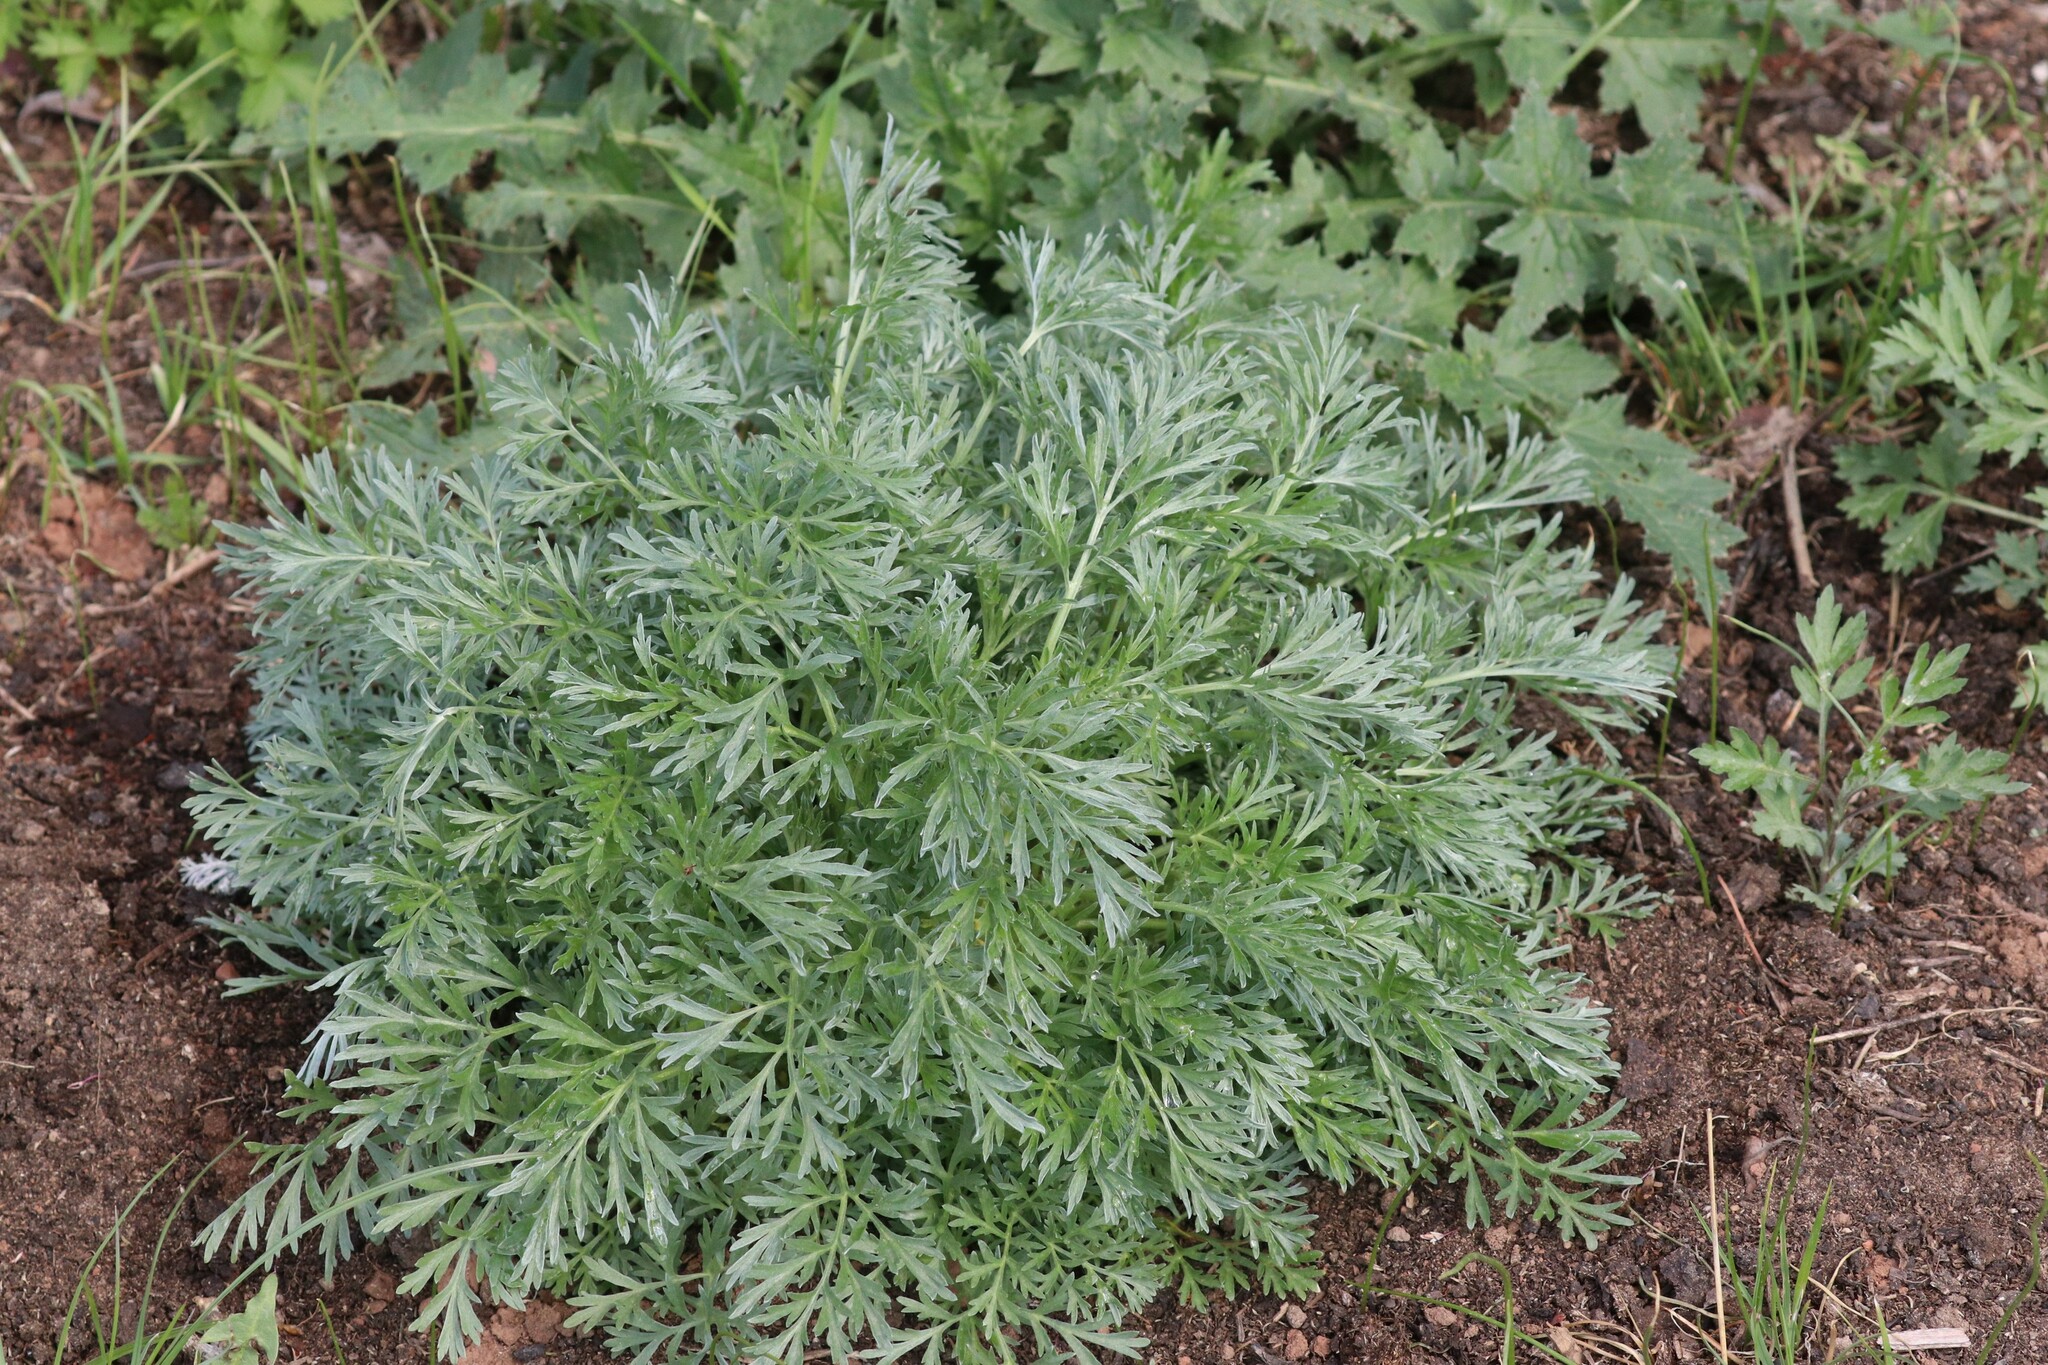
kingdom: Plantae
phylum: Tracheophyta
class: Magnoliopsida
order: Asterales
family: Asteraceae
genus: Artemisia
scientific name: Artemisia absinthium
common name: Wormwood
